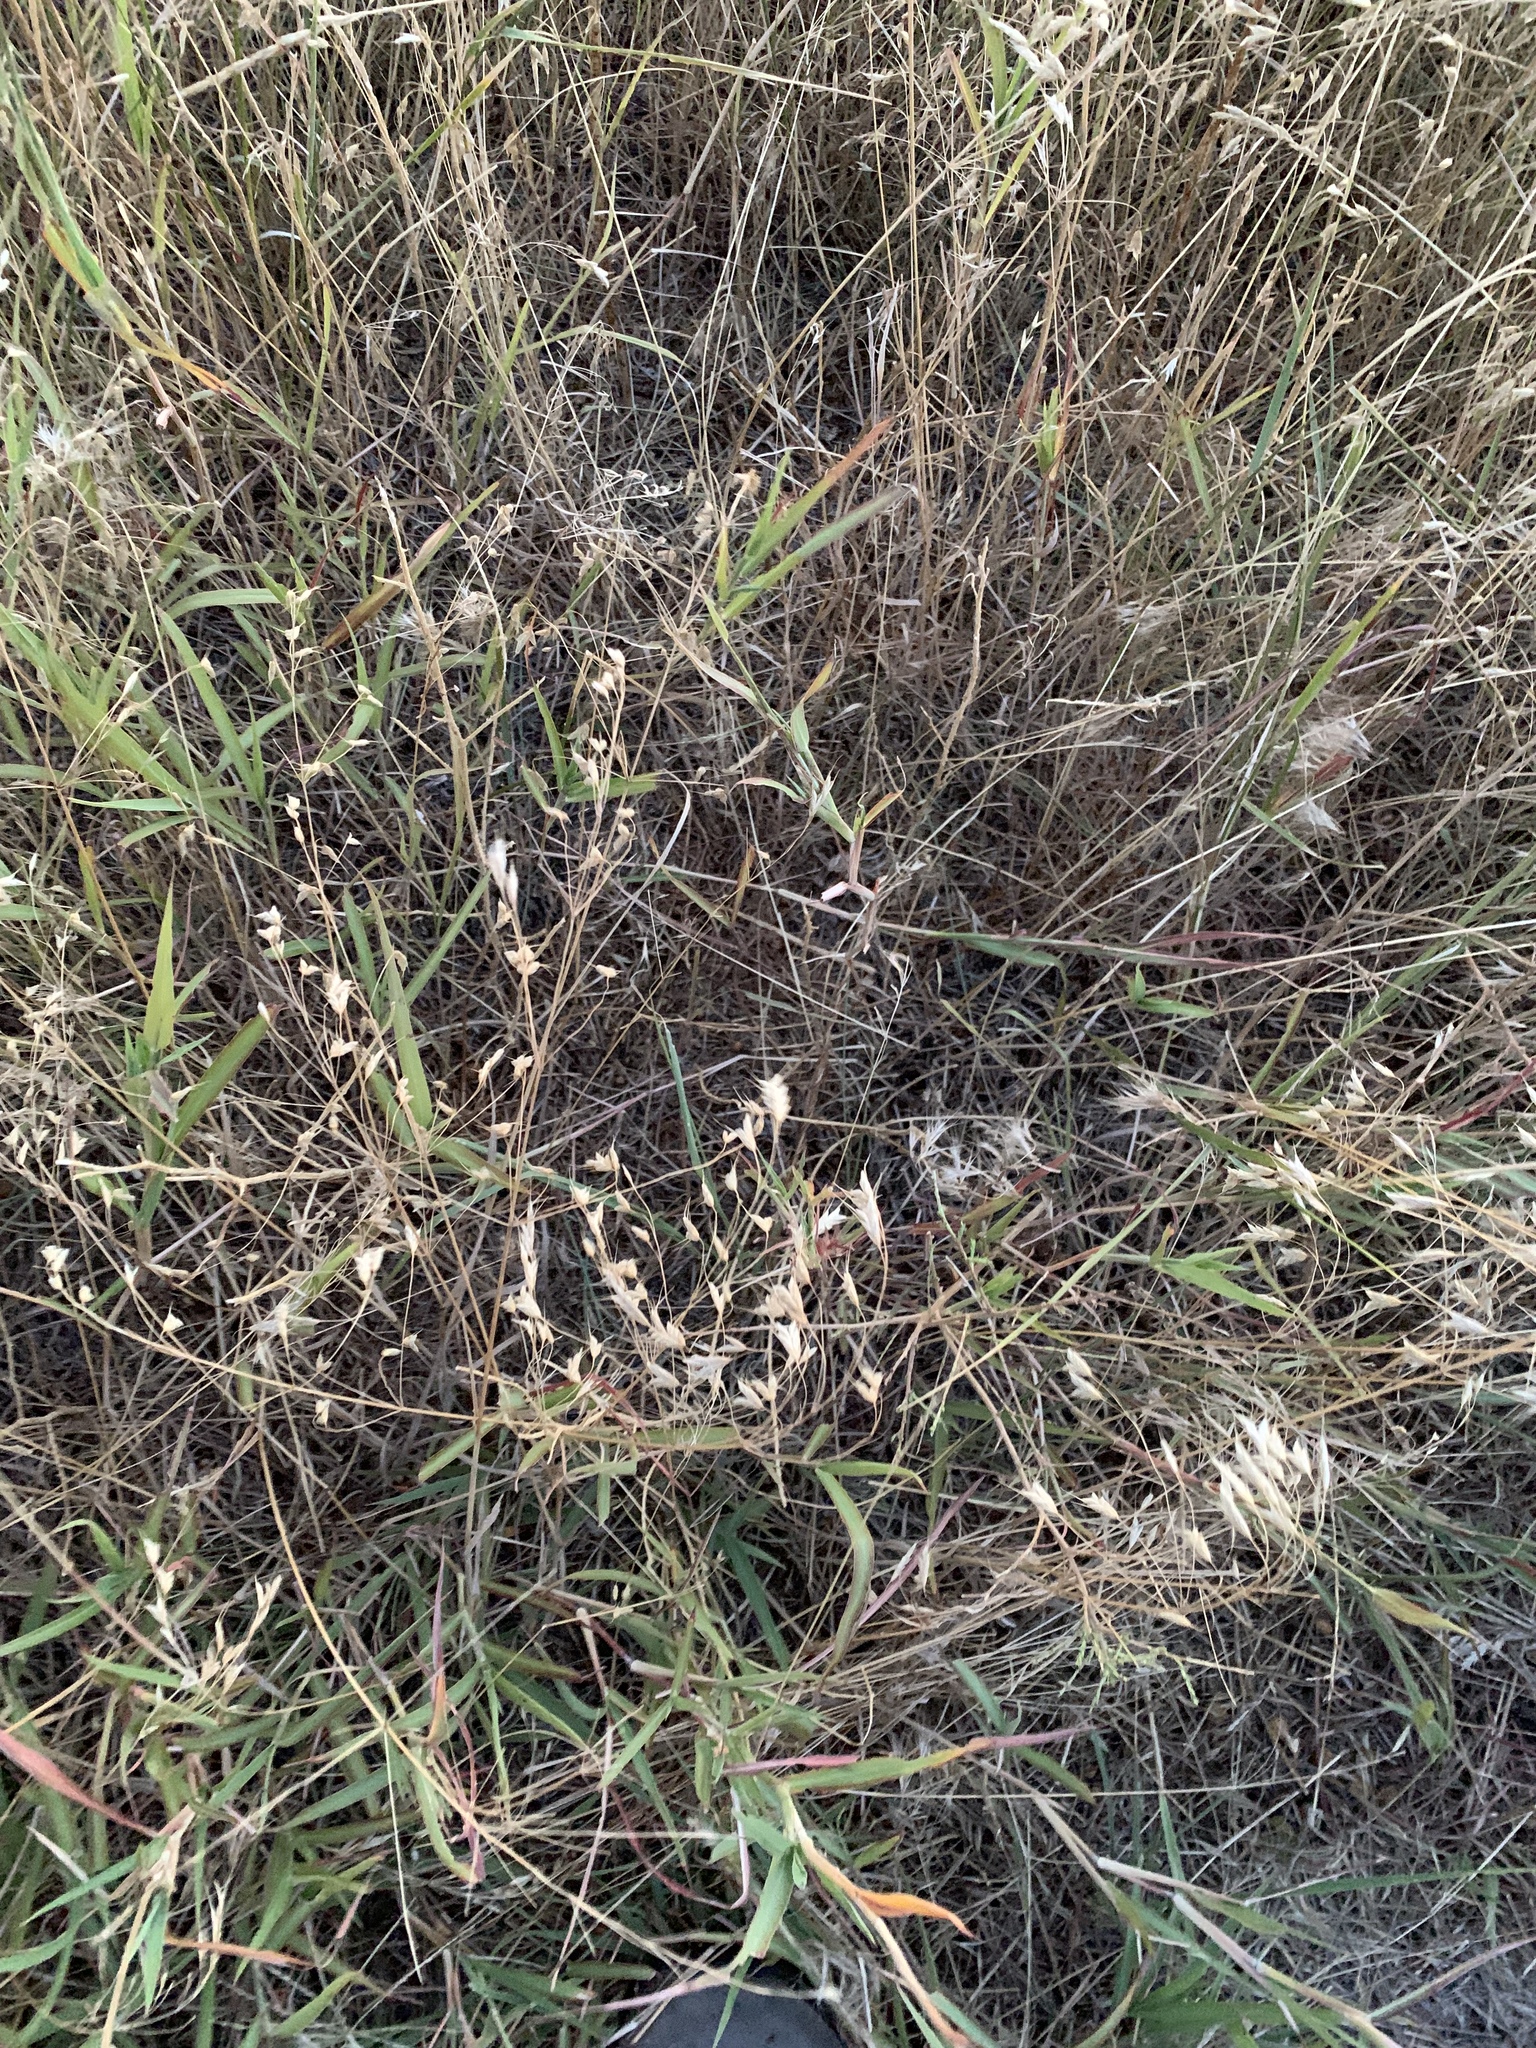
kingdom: Plantae
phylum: Tracheophyta
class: Liliopsida
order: Poales
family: Poaceae
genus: Bromus
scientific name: Bromus japonicus
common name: Japanese brome
